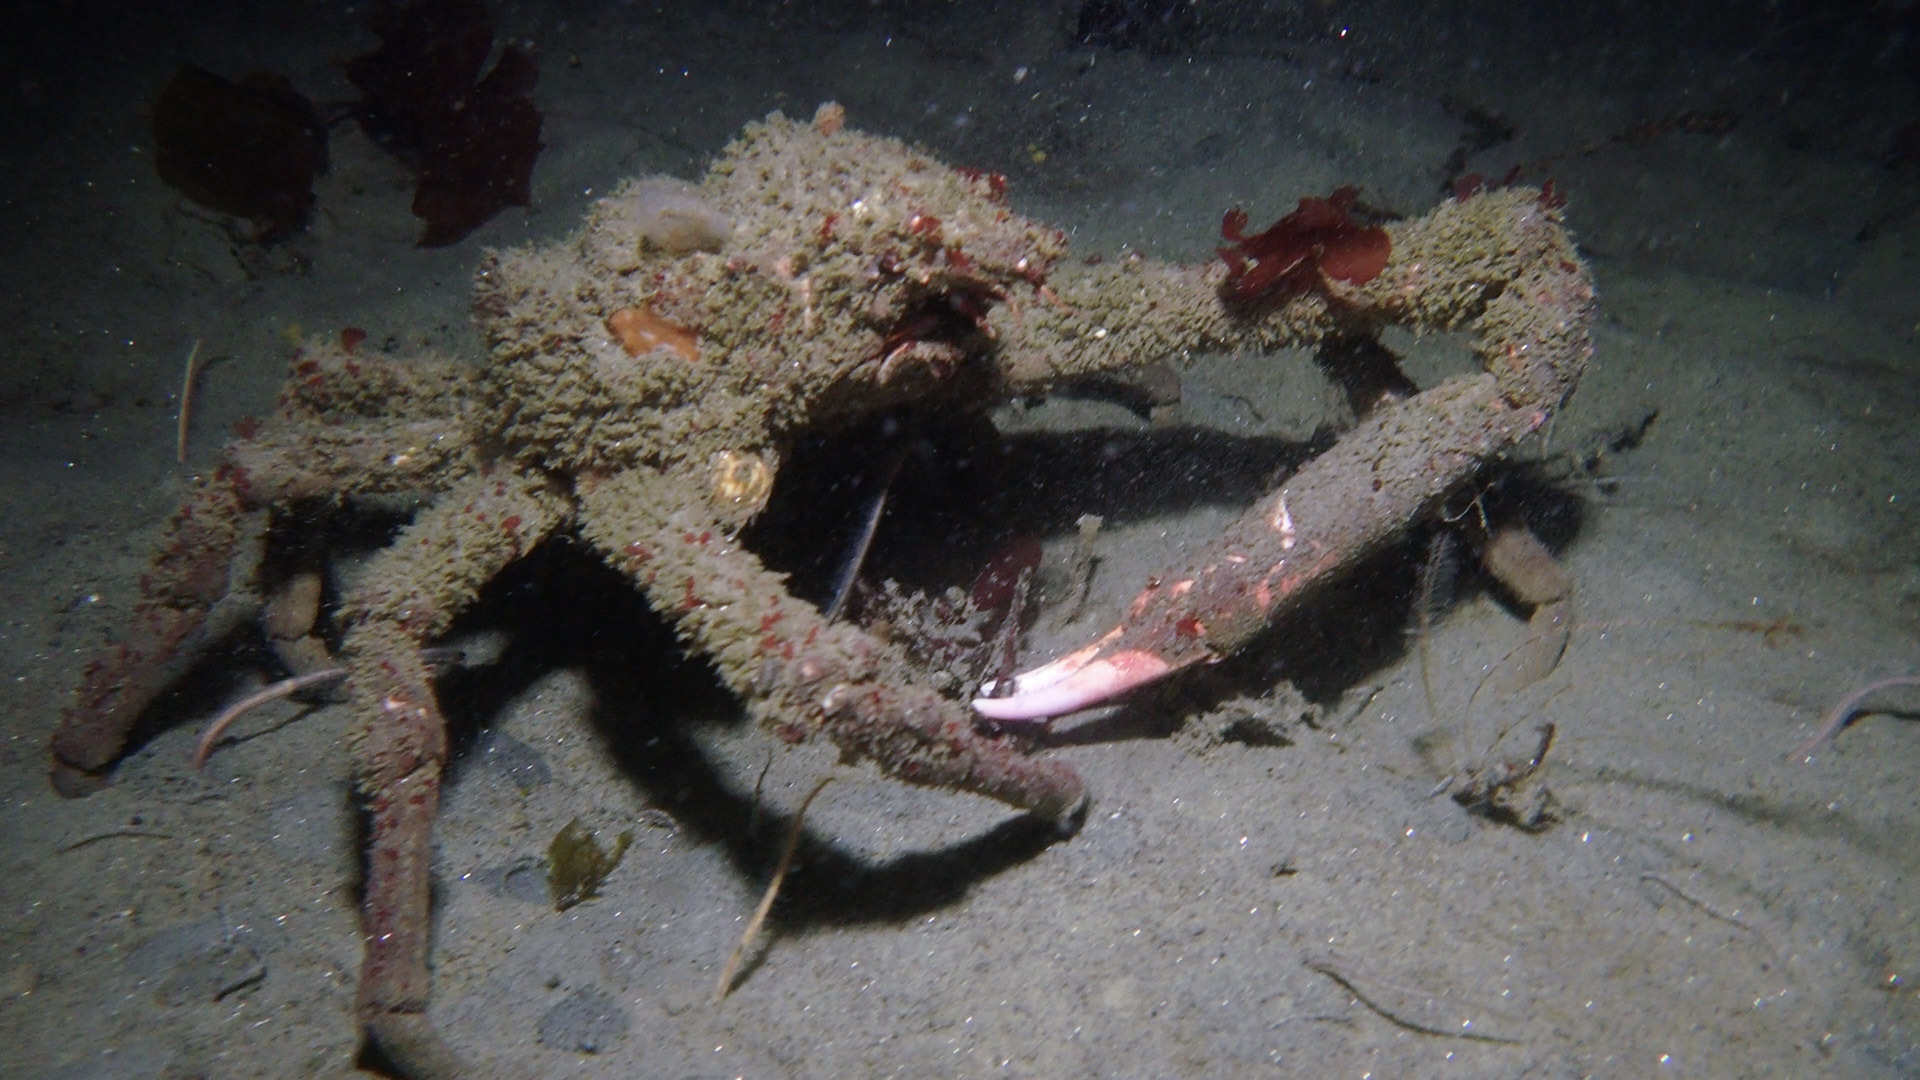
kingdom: Animalia
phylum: Arthropoda
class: Malacostraca
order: Decapoda
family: Epialtidae
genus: Loxorhynchus
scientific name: Loxorhynchus grandis
